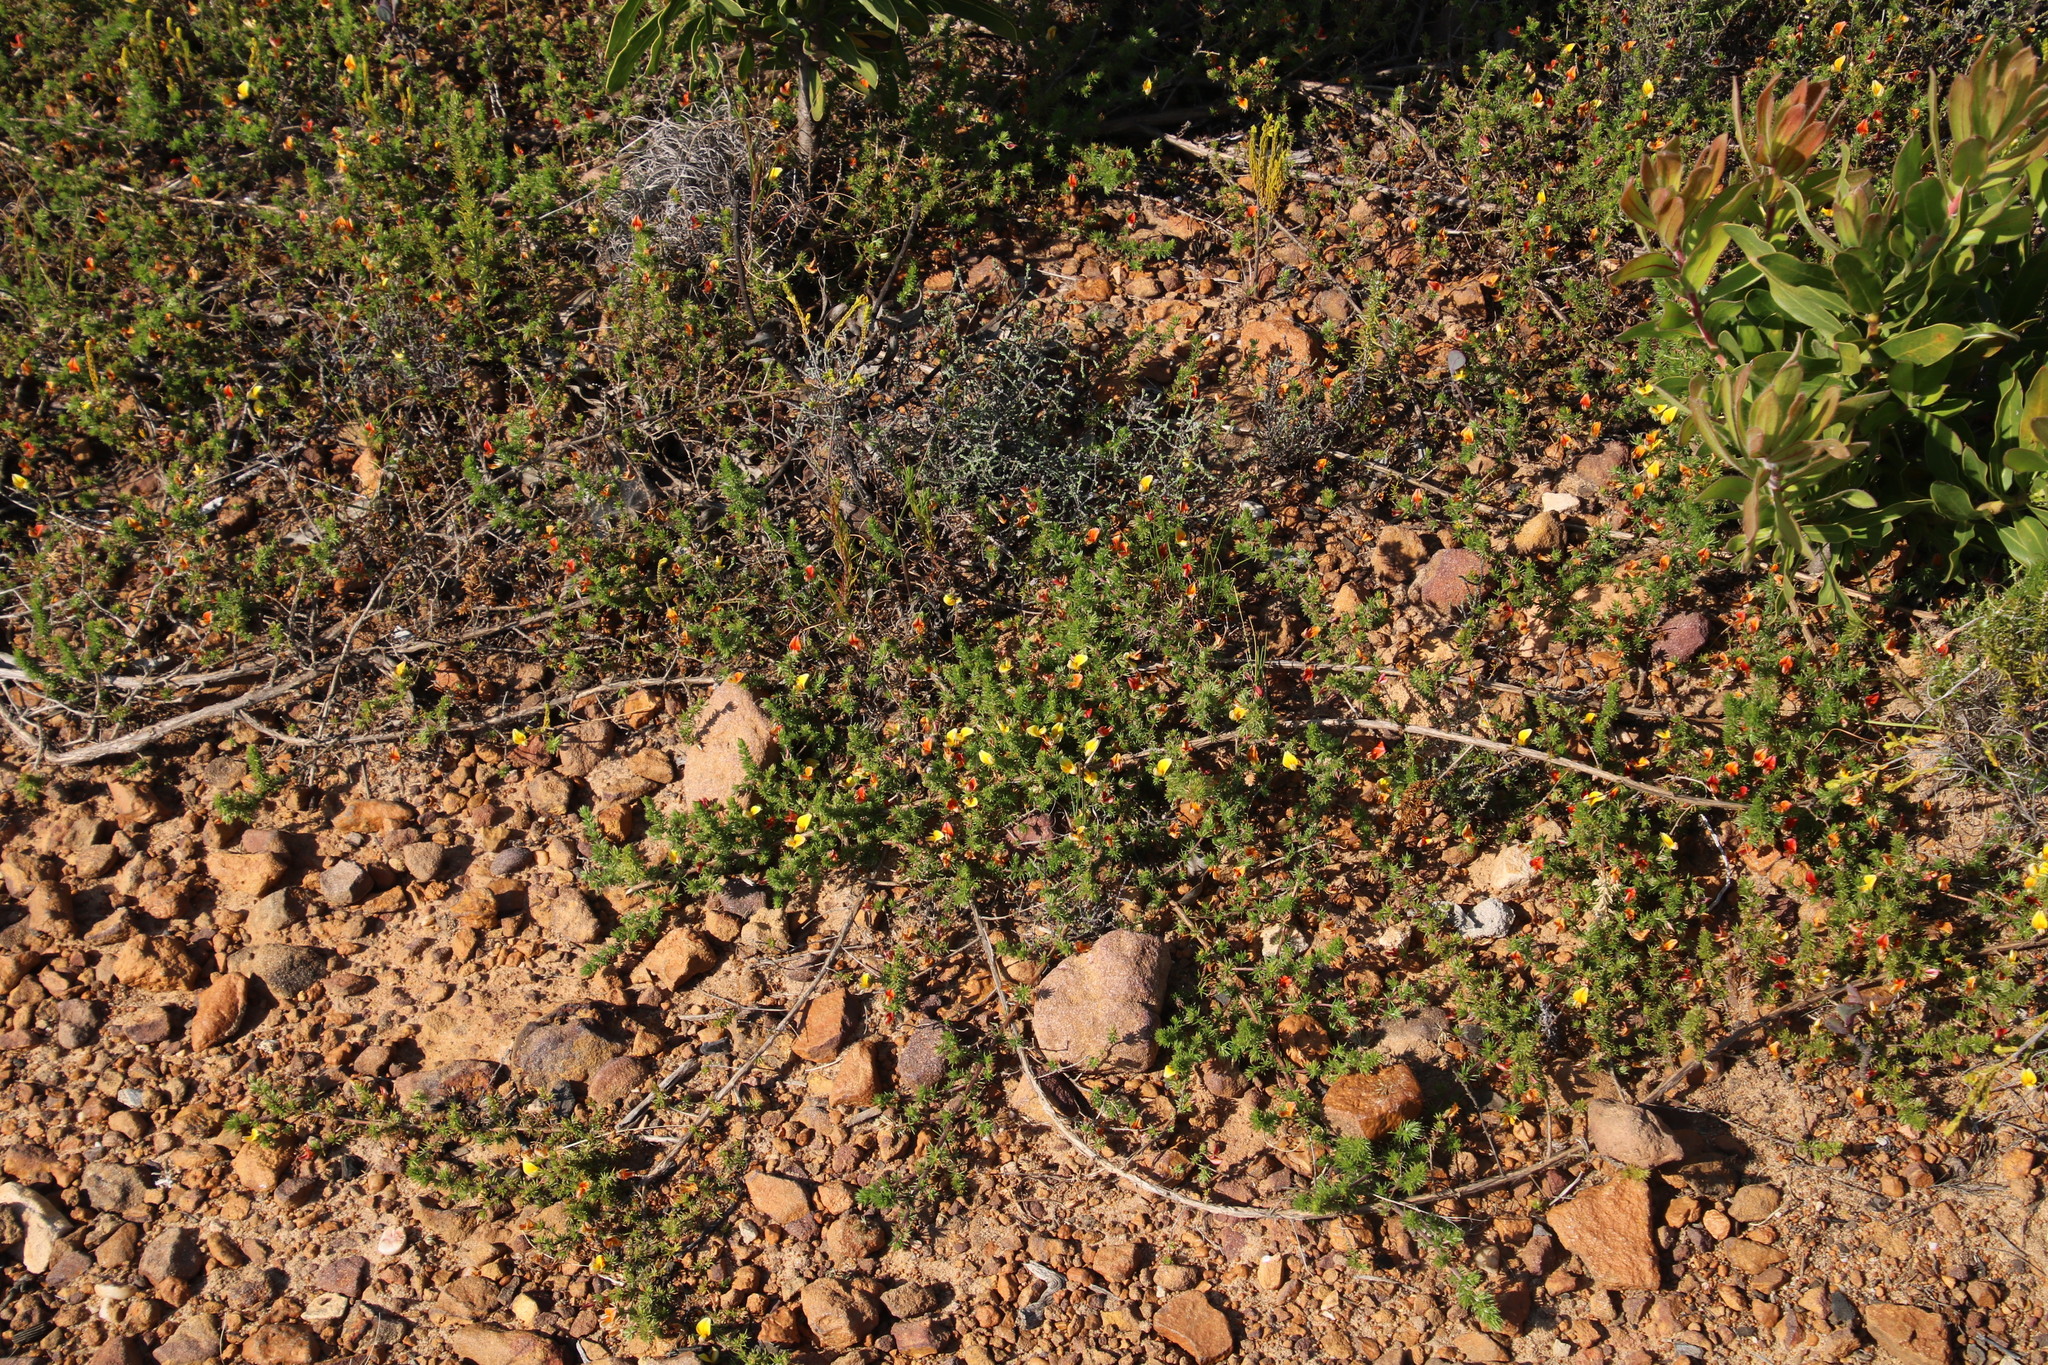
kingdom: Plantae
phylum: Tracheophyta
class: Magnoliopsida
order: Fabales
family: Fabaceae
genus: Aspalathus
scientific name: Aspalathus retroflexa
